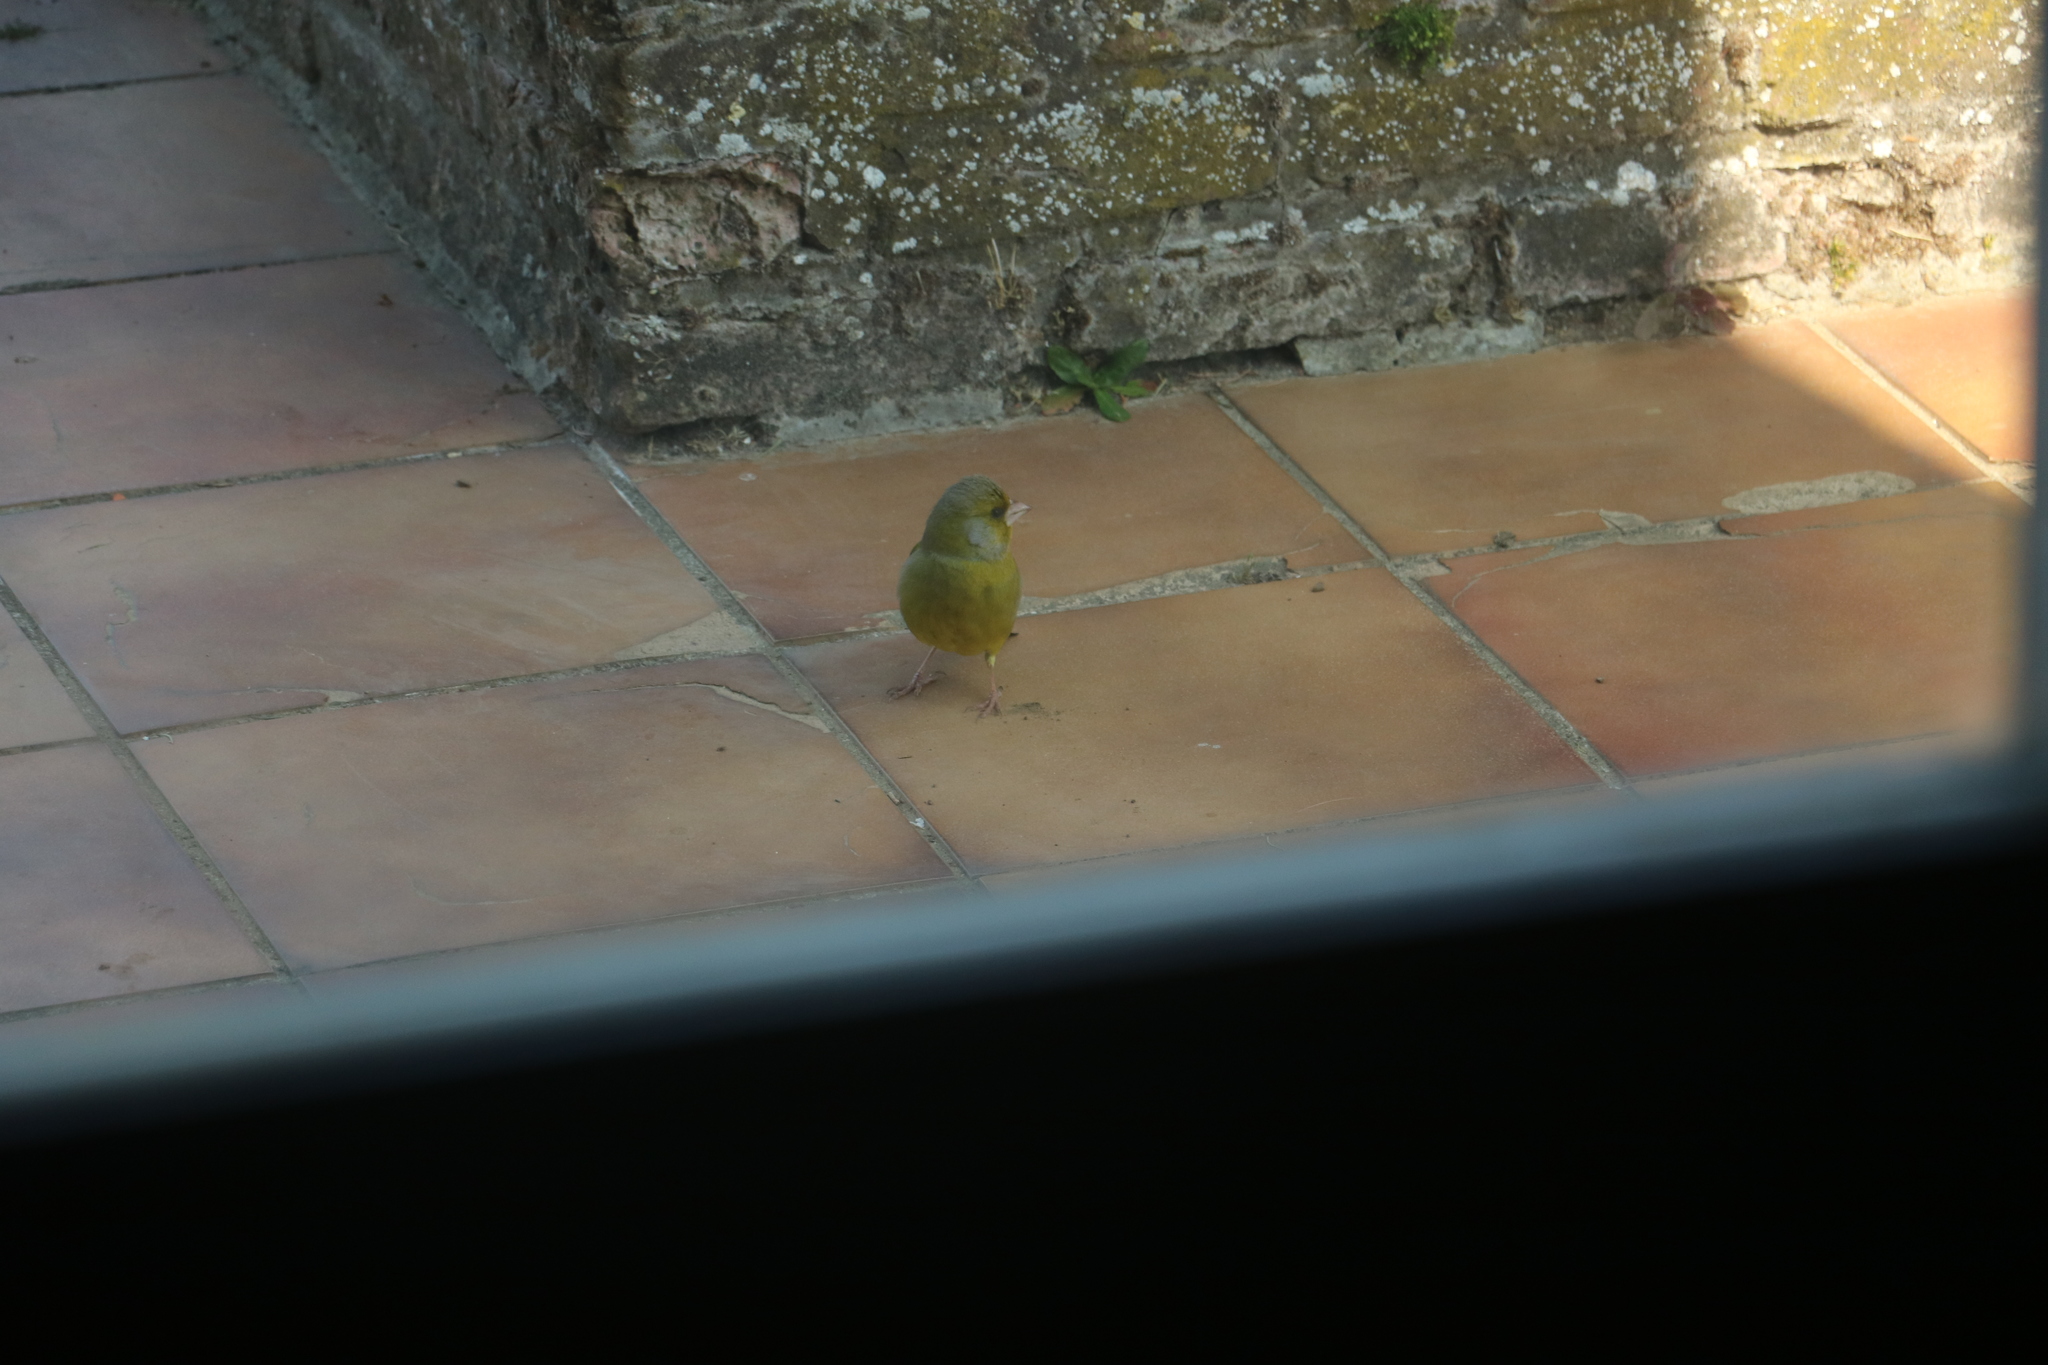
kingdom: Plantae
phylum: Tracheophyta
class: Liliopsida
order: Poales
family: Poaceae
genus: Chloris
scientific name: Chloris chloris
